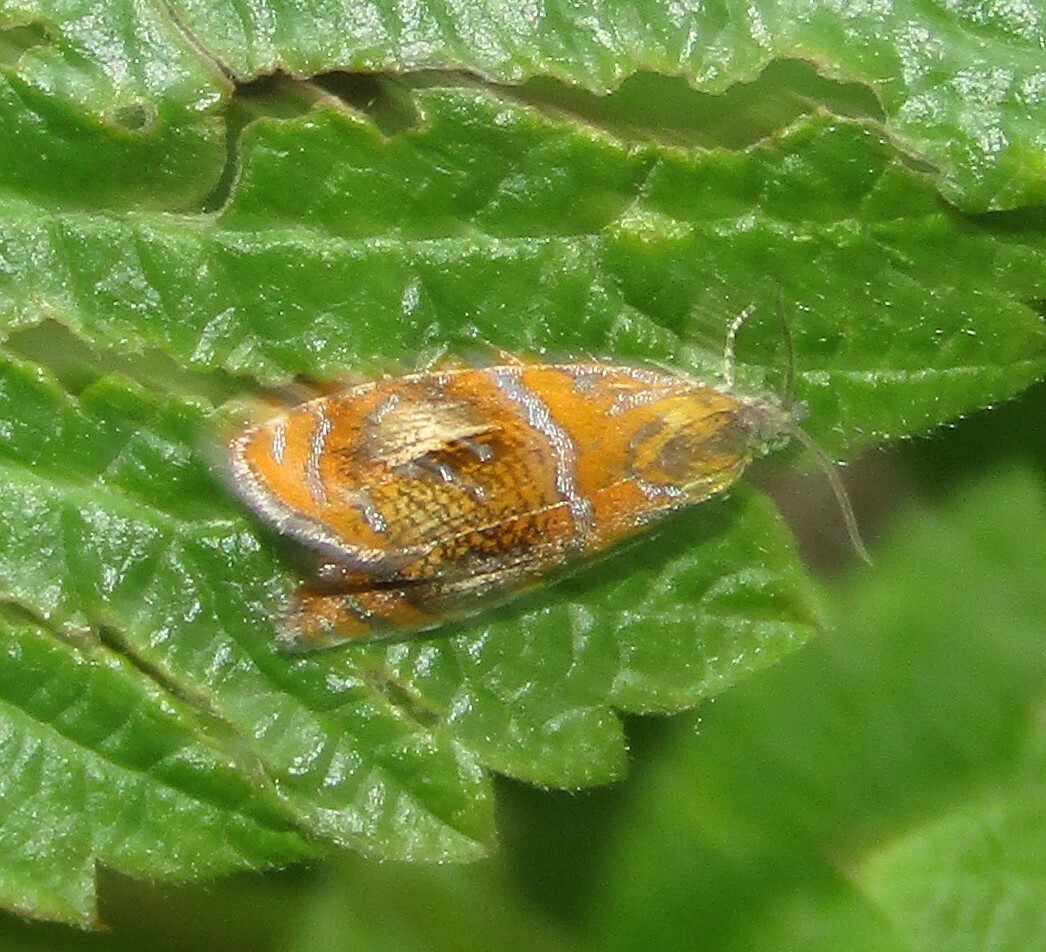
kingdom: Animalia
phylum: Arthropoda
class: Insecta
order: Lepidoptera
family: Tortricidae
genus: Olethreutes
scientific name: Olethreutes arcuella
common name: Arched marble
